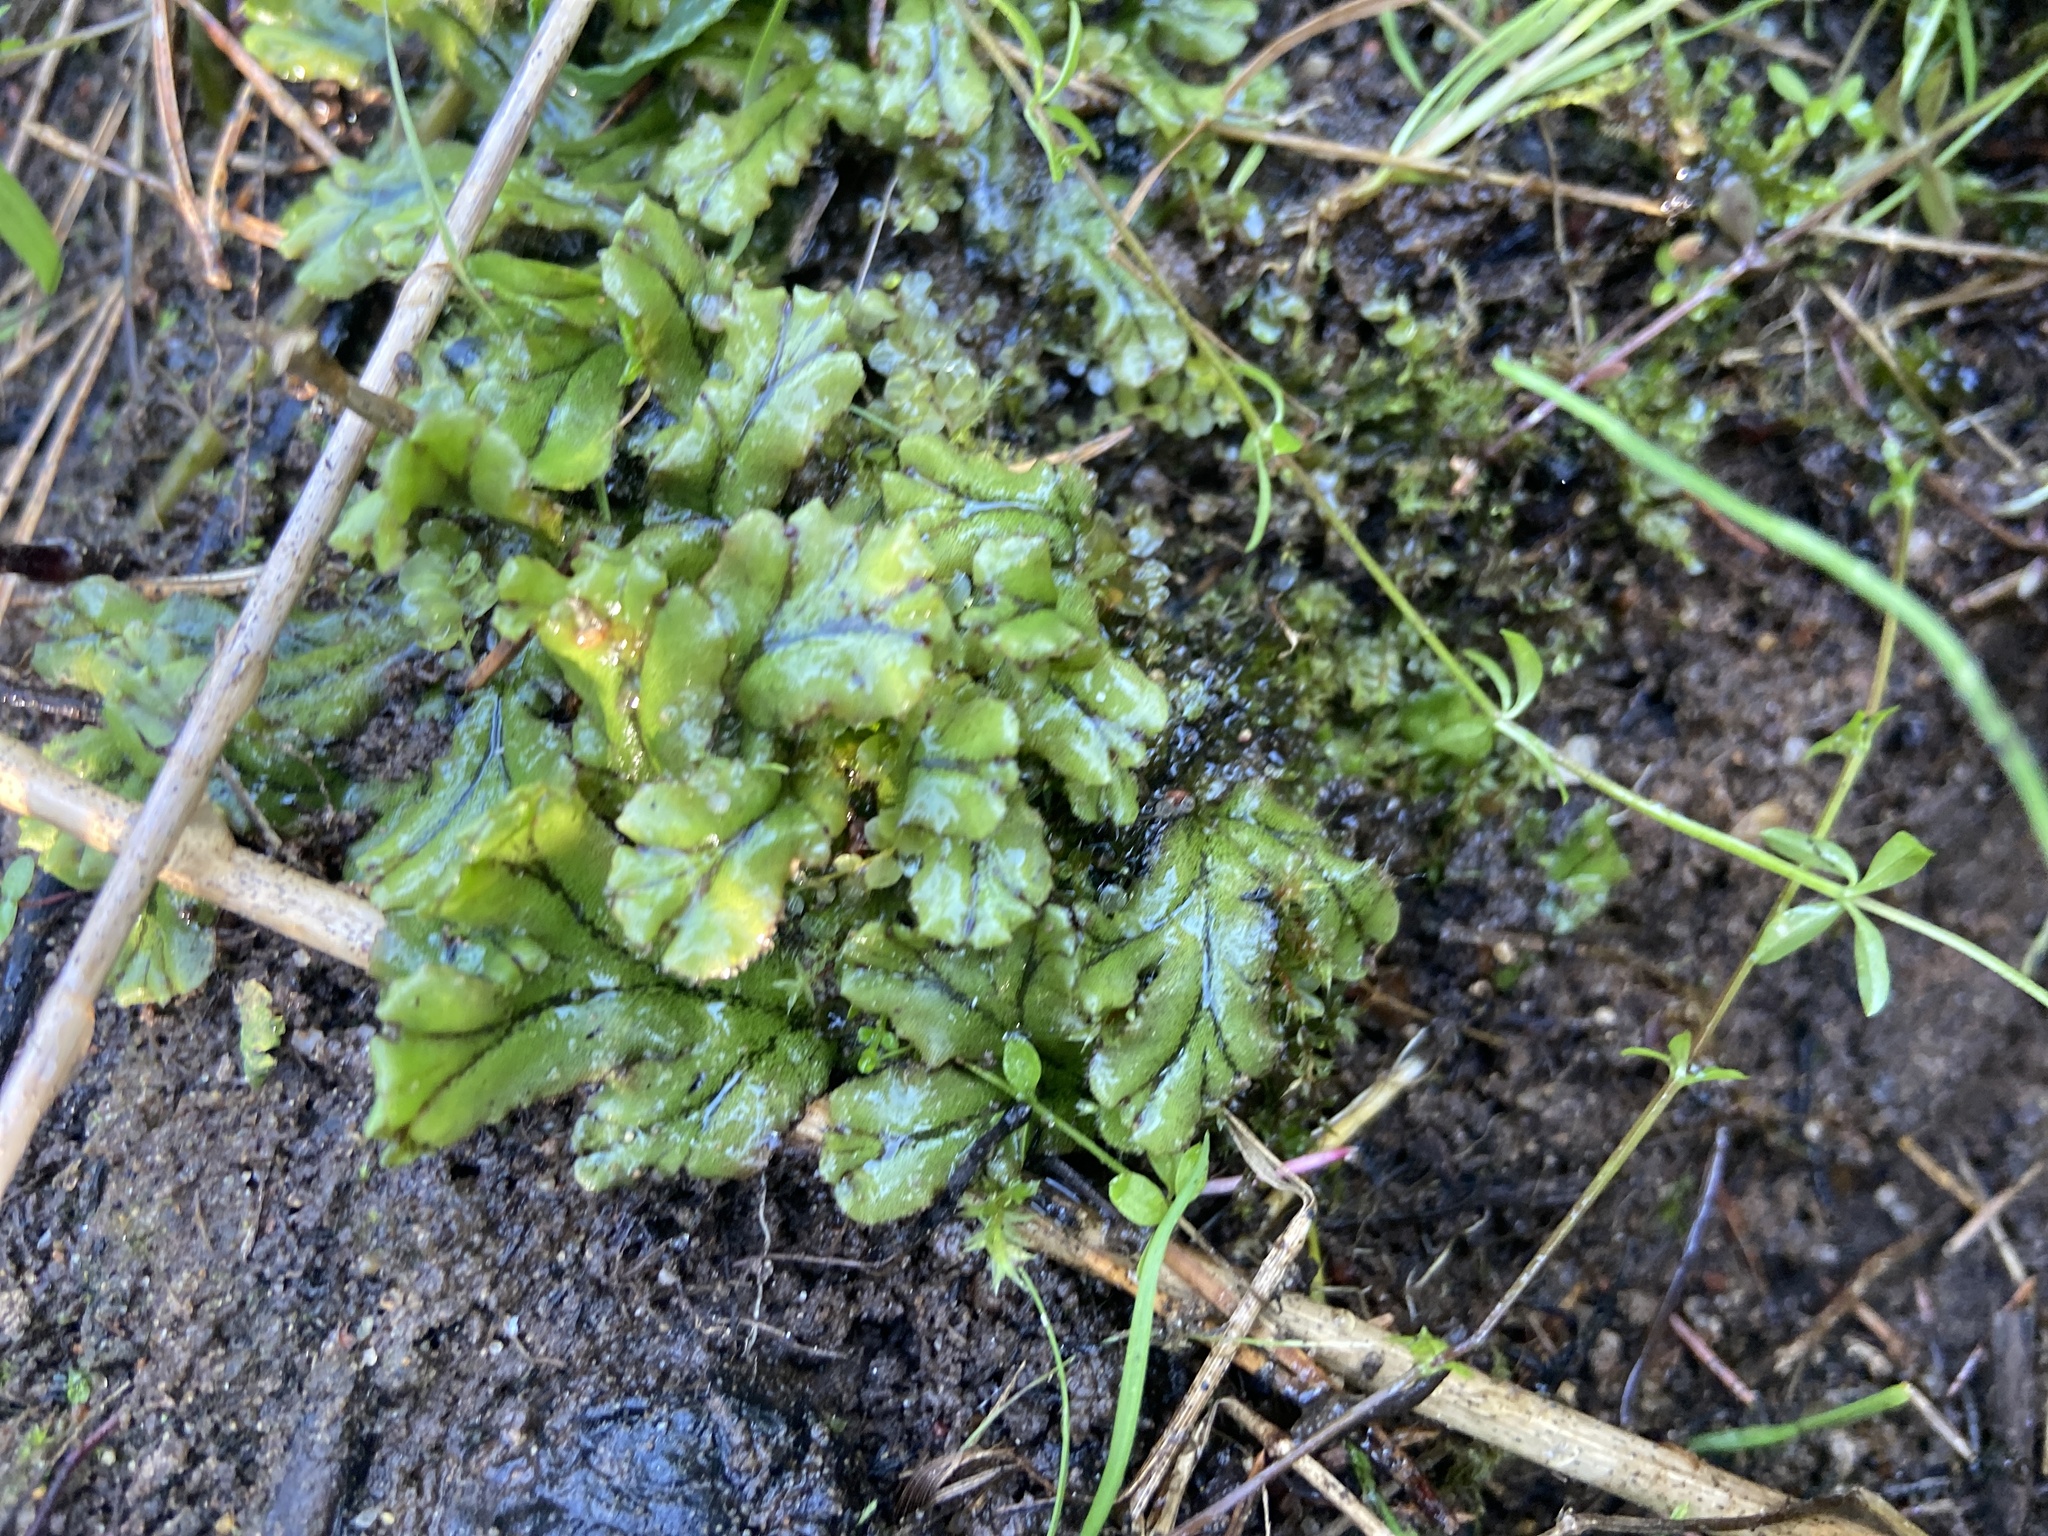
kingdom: Plantae
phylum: Marchantiophyta
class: Marchantiopsida
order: Marchantiales
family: Marchantiaceae
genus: Marchantia
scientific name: Marchantia polymorpha
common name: Common liverwort
